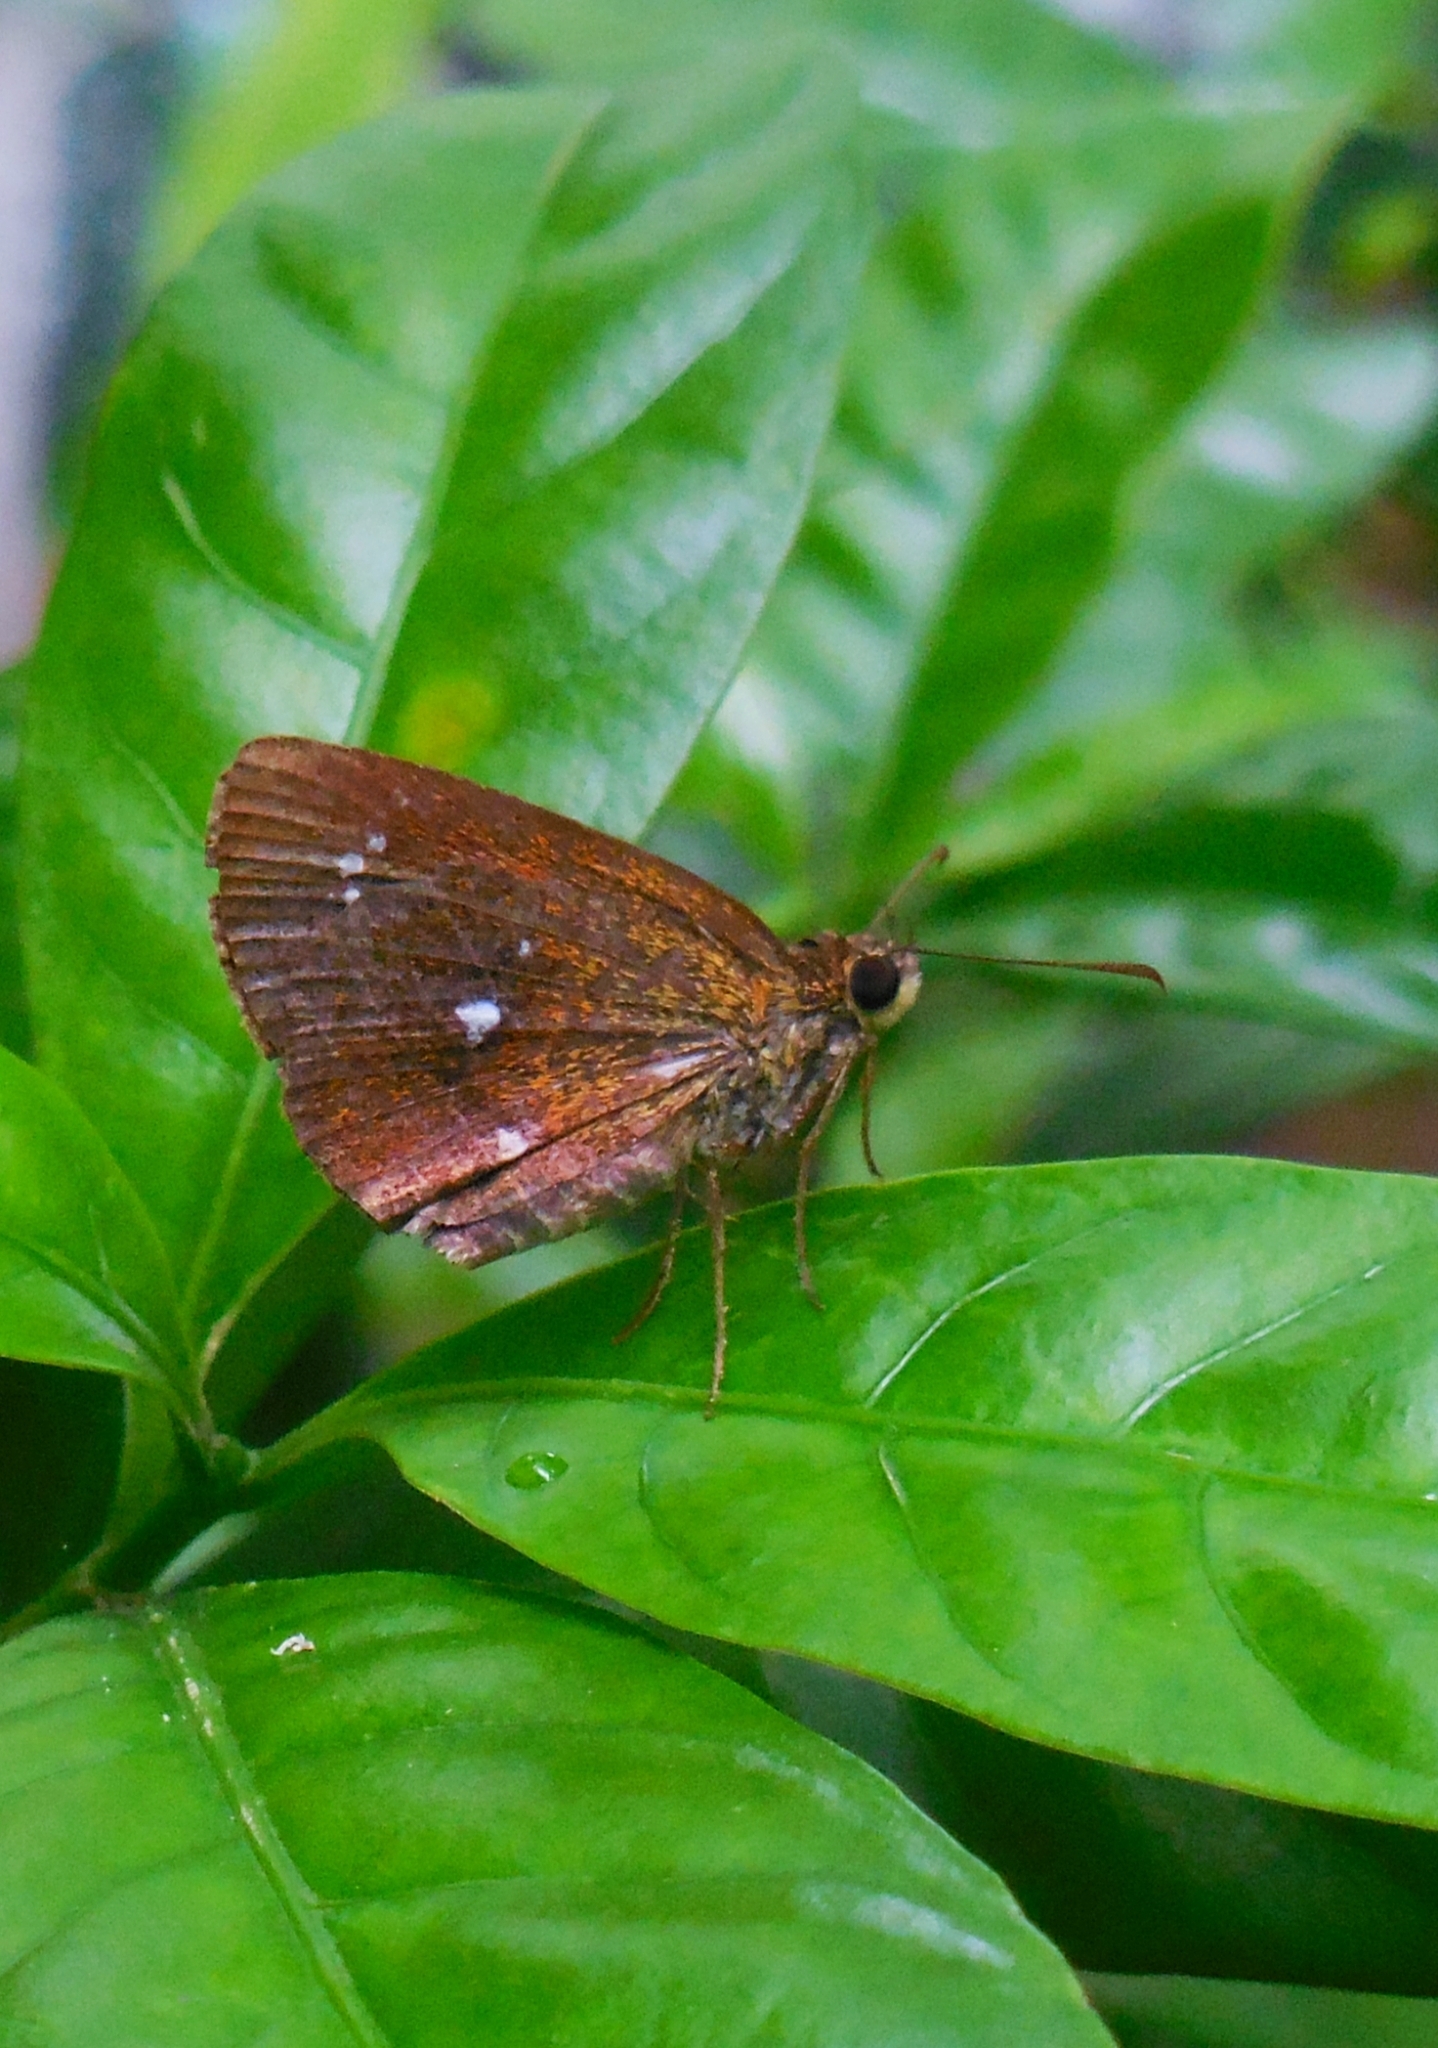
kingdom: Animalia
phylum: Arthropoda
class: Insecta
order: Lepidoptera
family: Hesperiidae
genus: Iambrix
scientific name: Iambrix salsala
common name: Chestnut bob
